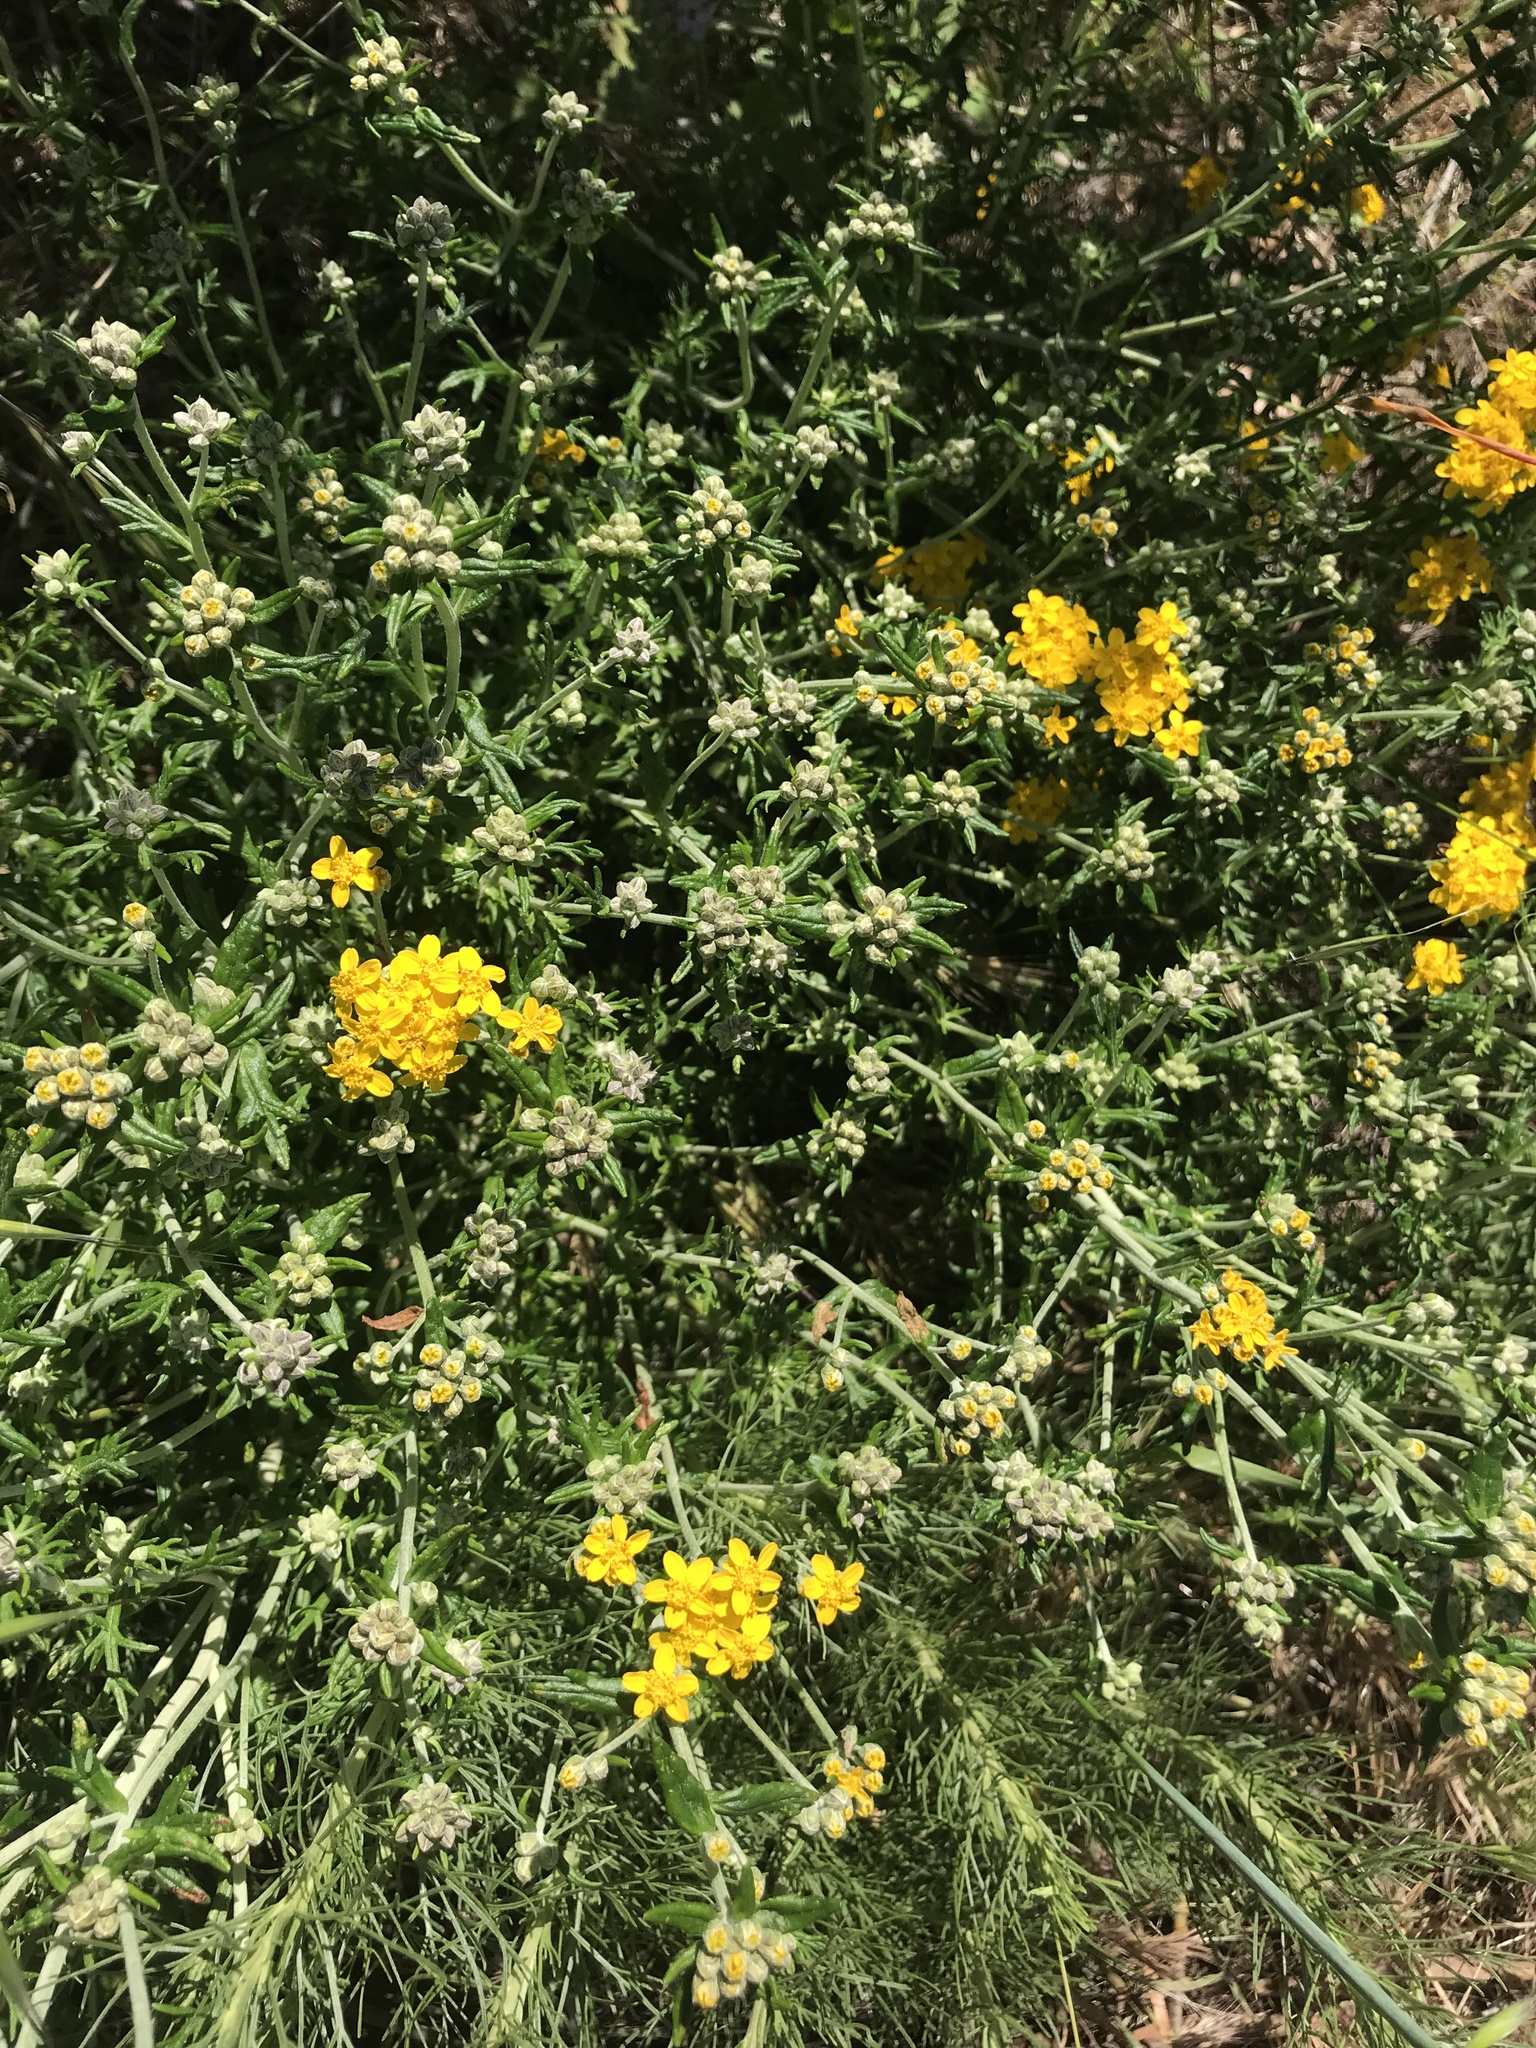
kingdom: Plantae
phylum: Tracheophyta
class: Magnoliopsida
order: Asterales
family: Asteraceae
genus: Eriophyllum
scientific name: Eriophyllum confertiflorum
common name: Golden-yarrow
